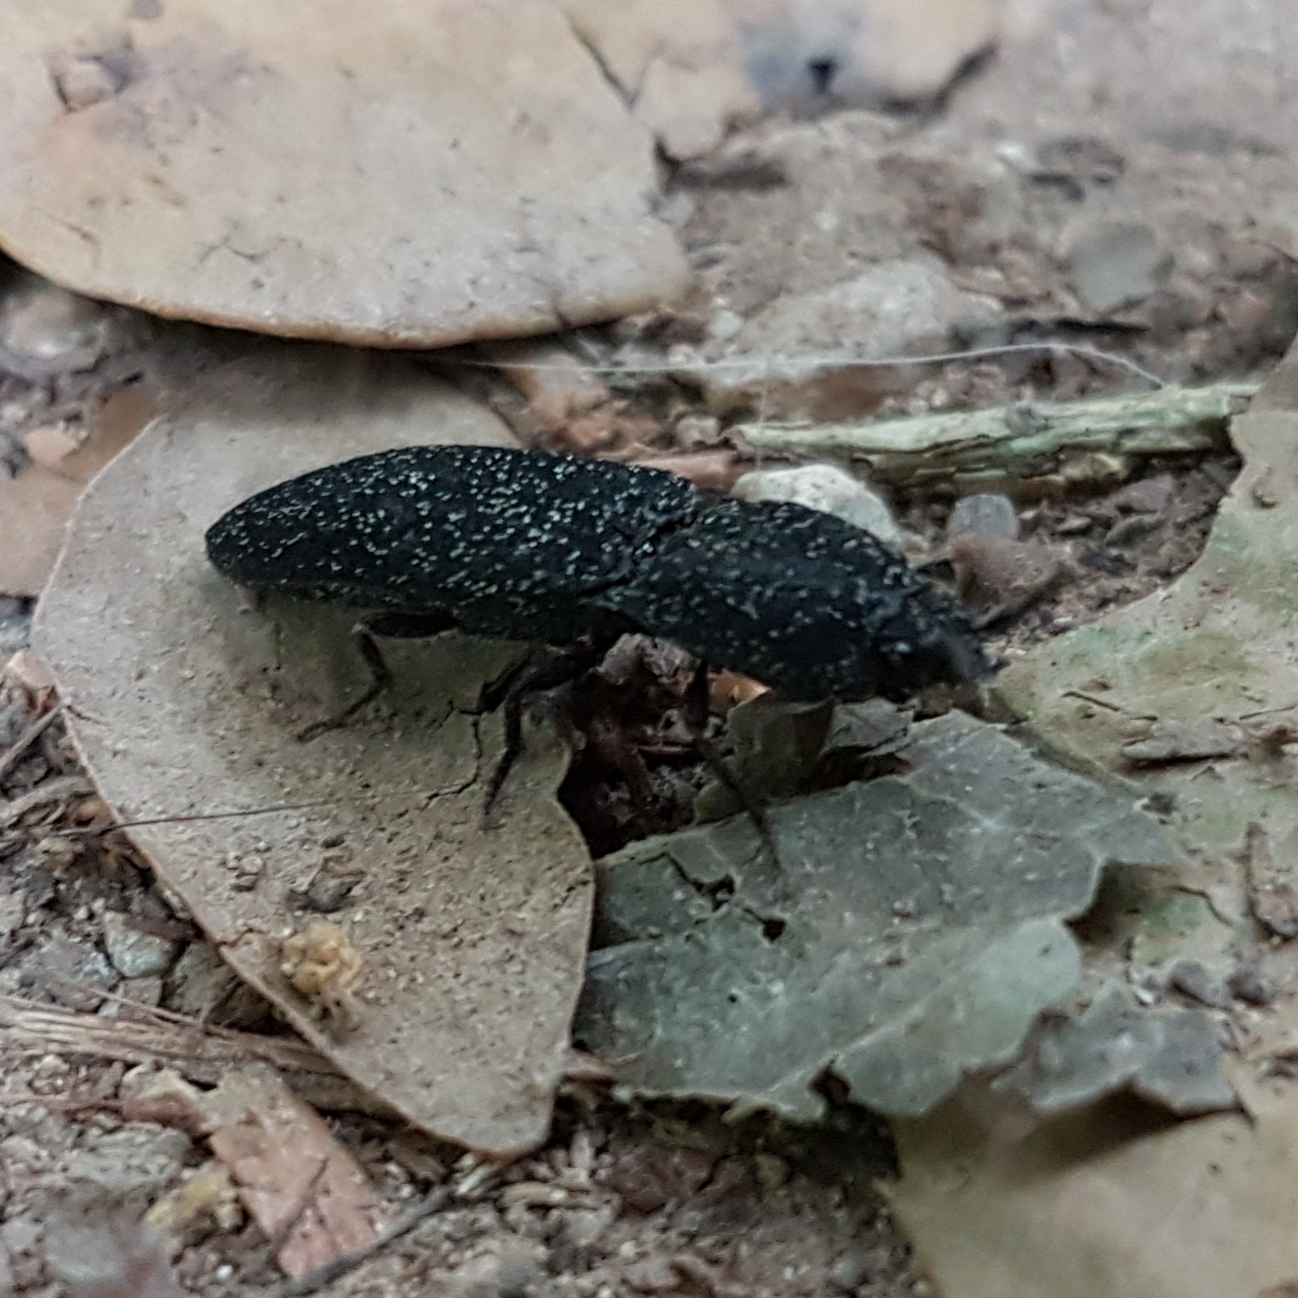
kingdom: Animalia
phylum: Arthropoda
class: Insecta
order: Coleoptera
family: Elateridae
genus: Lacon
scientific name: Lacon punctatus
